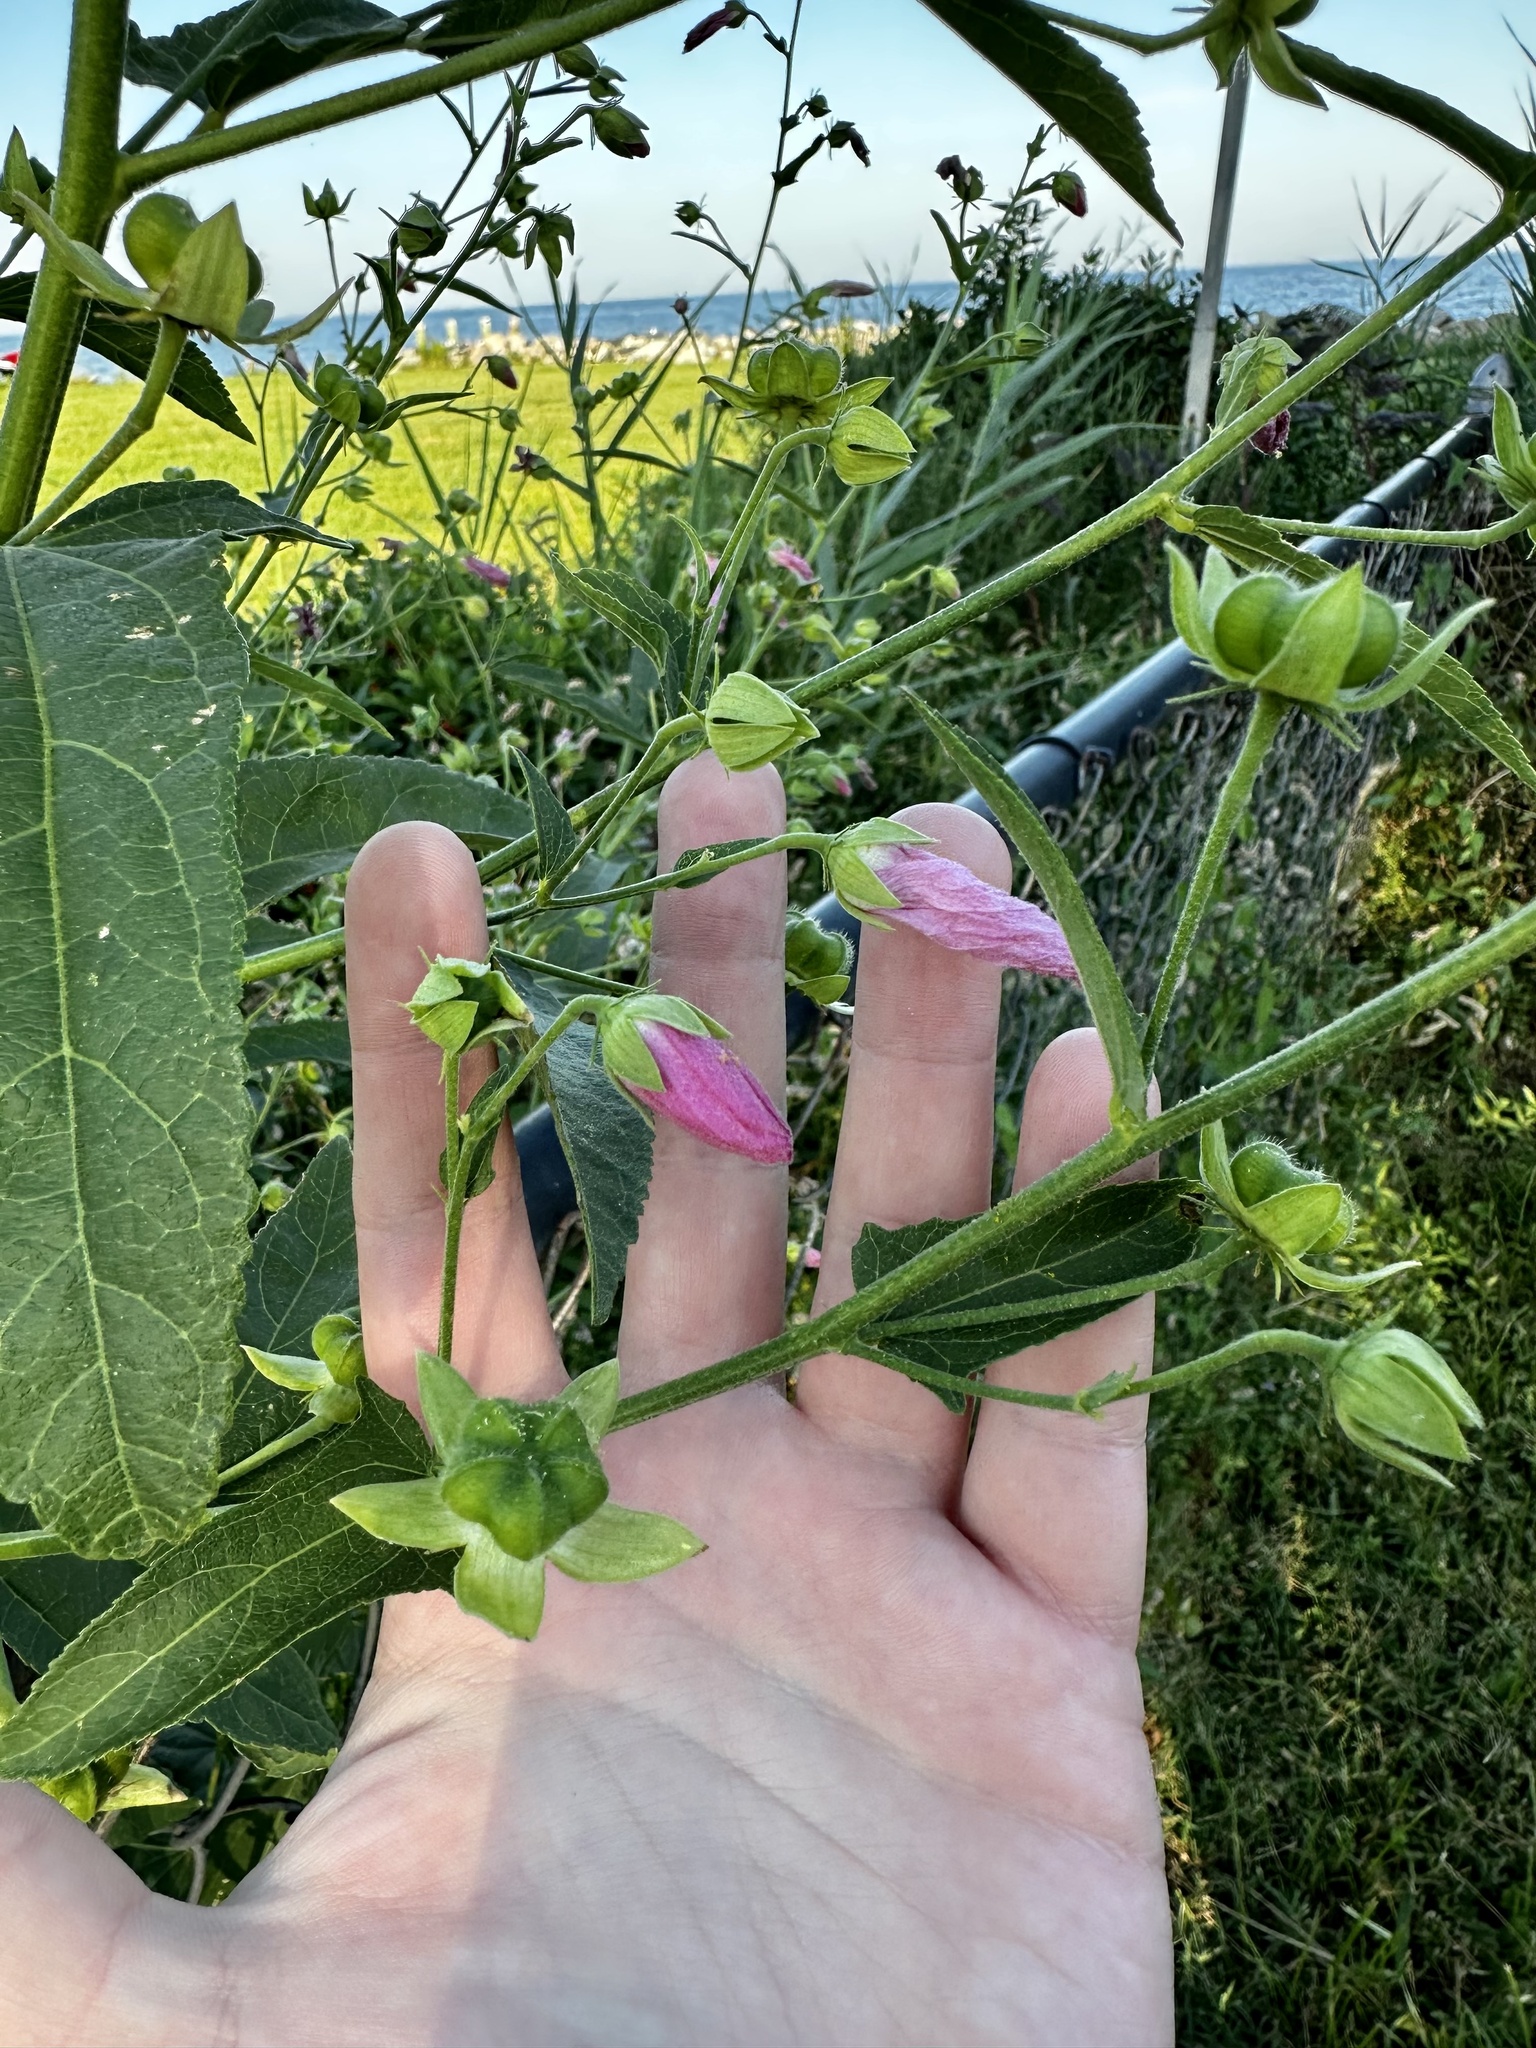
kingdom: Plantae
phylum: Tracheophyta
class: Magnoliopsida
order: Malvales
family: Malvaceae
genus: Kosteletzkya
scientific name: Kosteletzkya pentacarpos
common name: Virginia saltmarsh mallow
